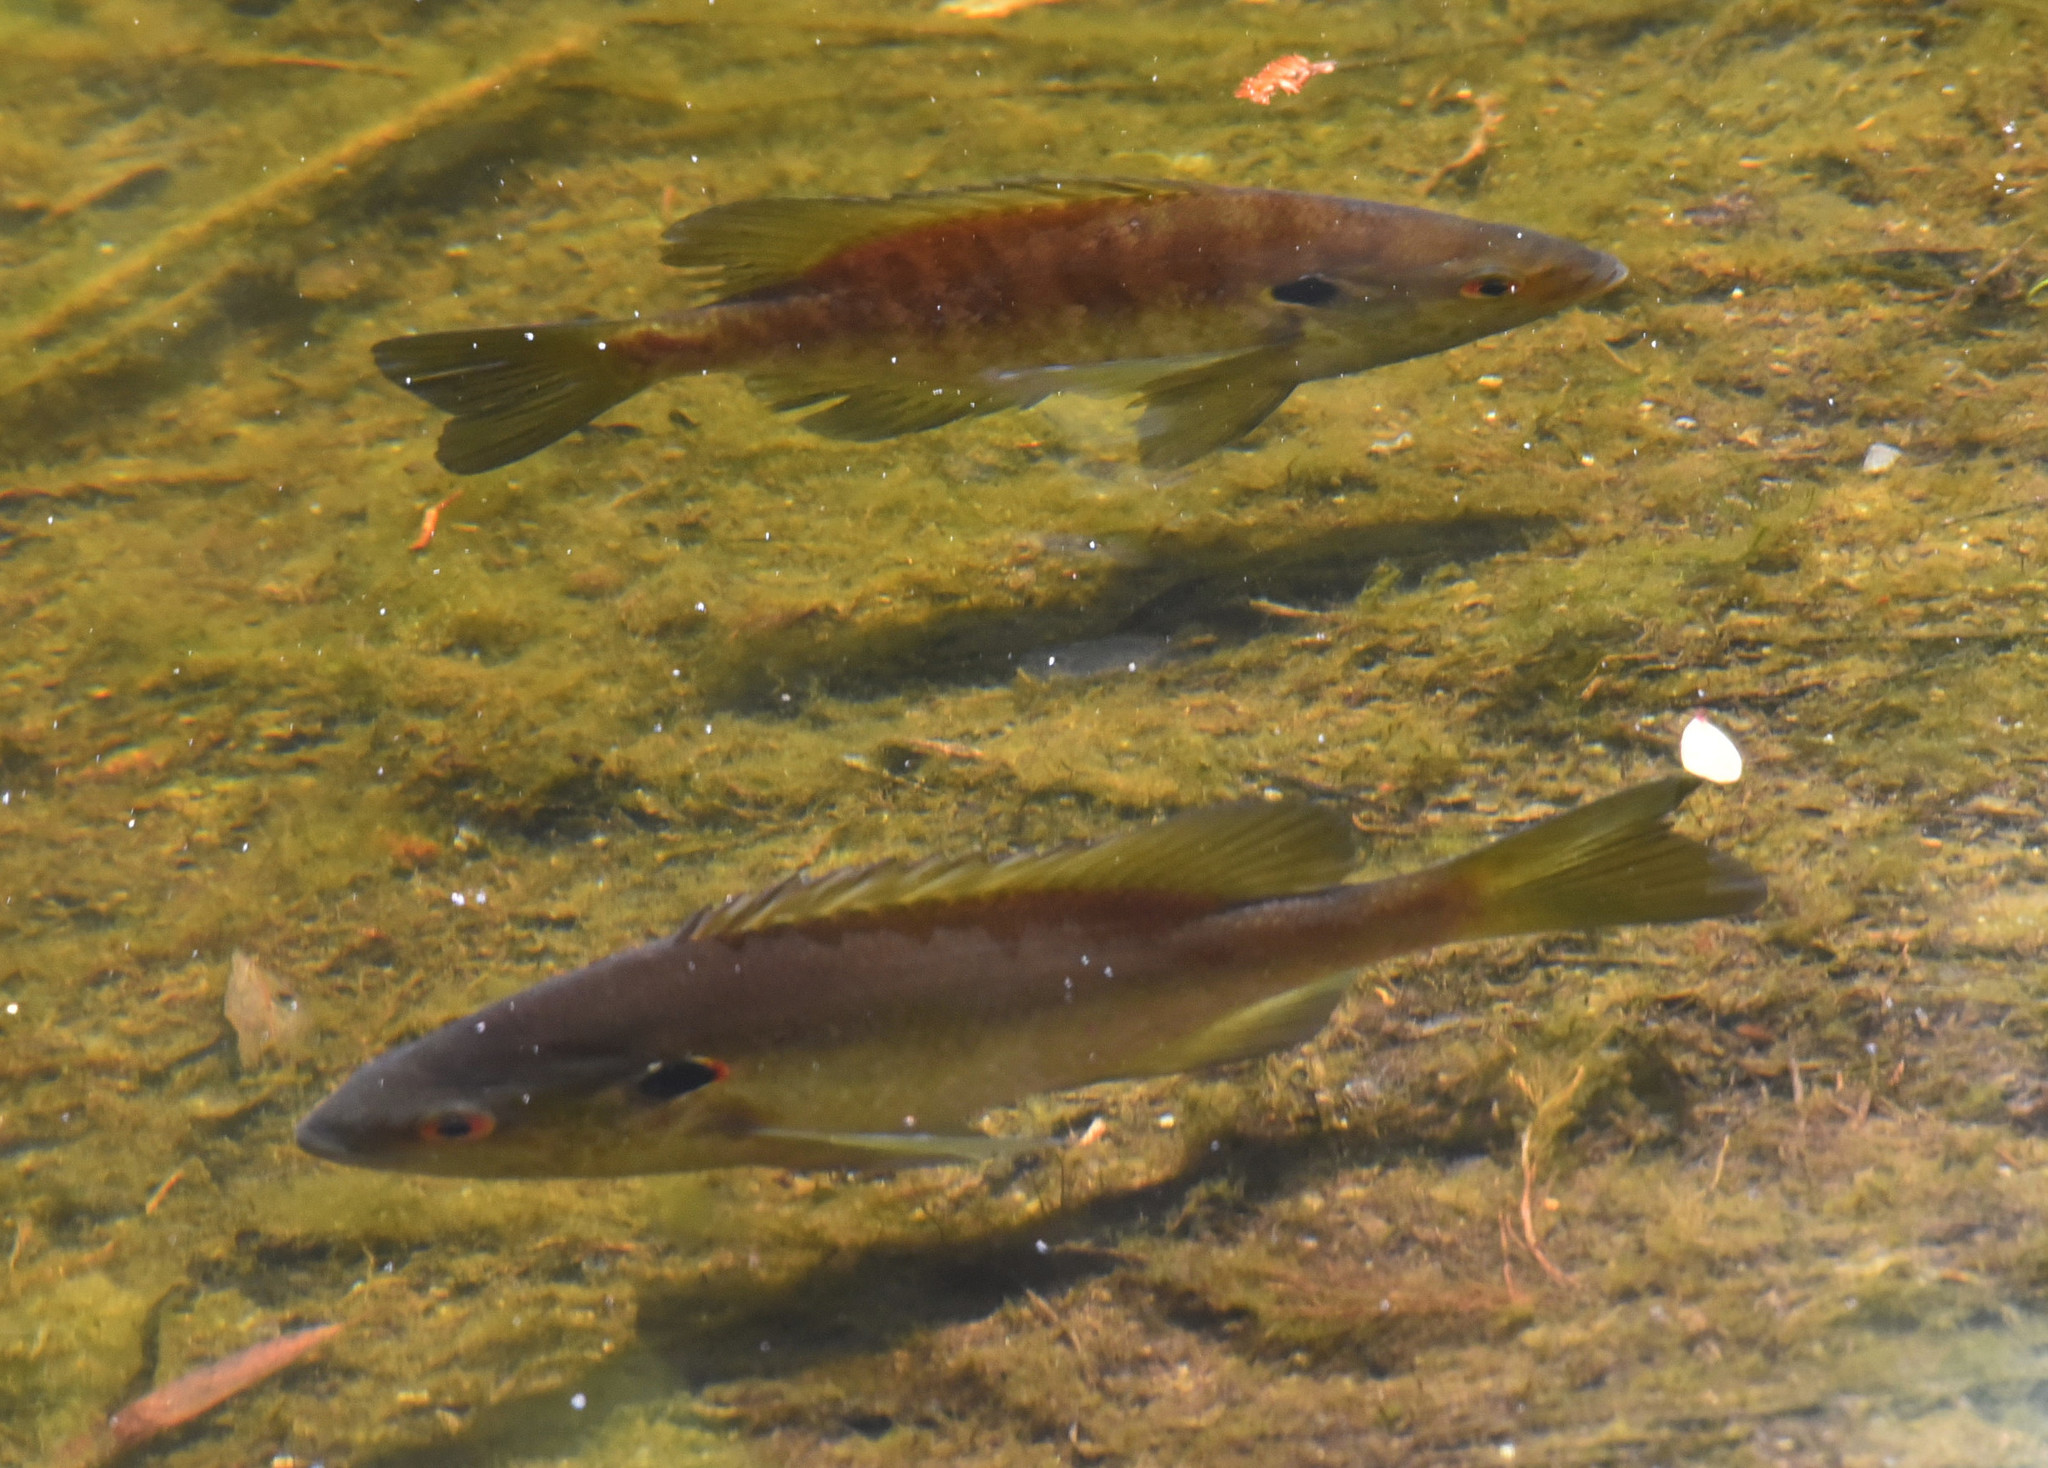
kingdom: Animalia
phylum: Chordata
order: Perciformes
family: Centrarchidae
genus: Lepomis
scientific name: Lepomis microlophus
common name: Redear sunfish
